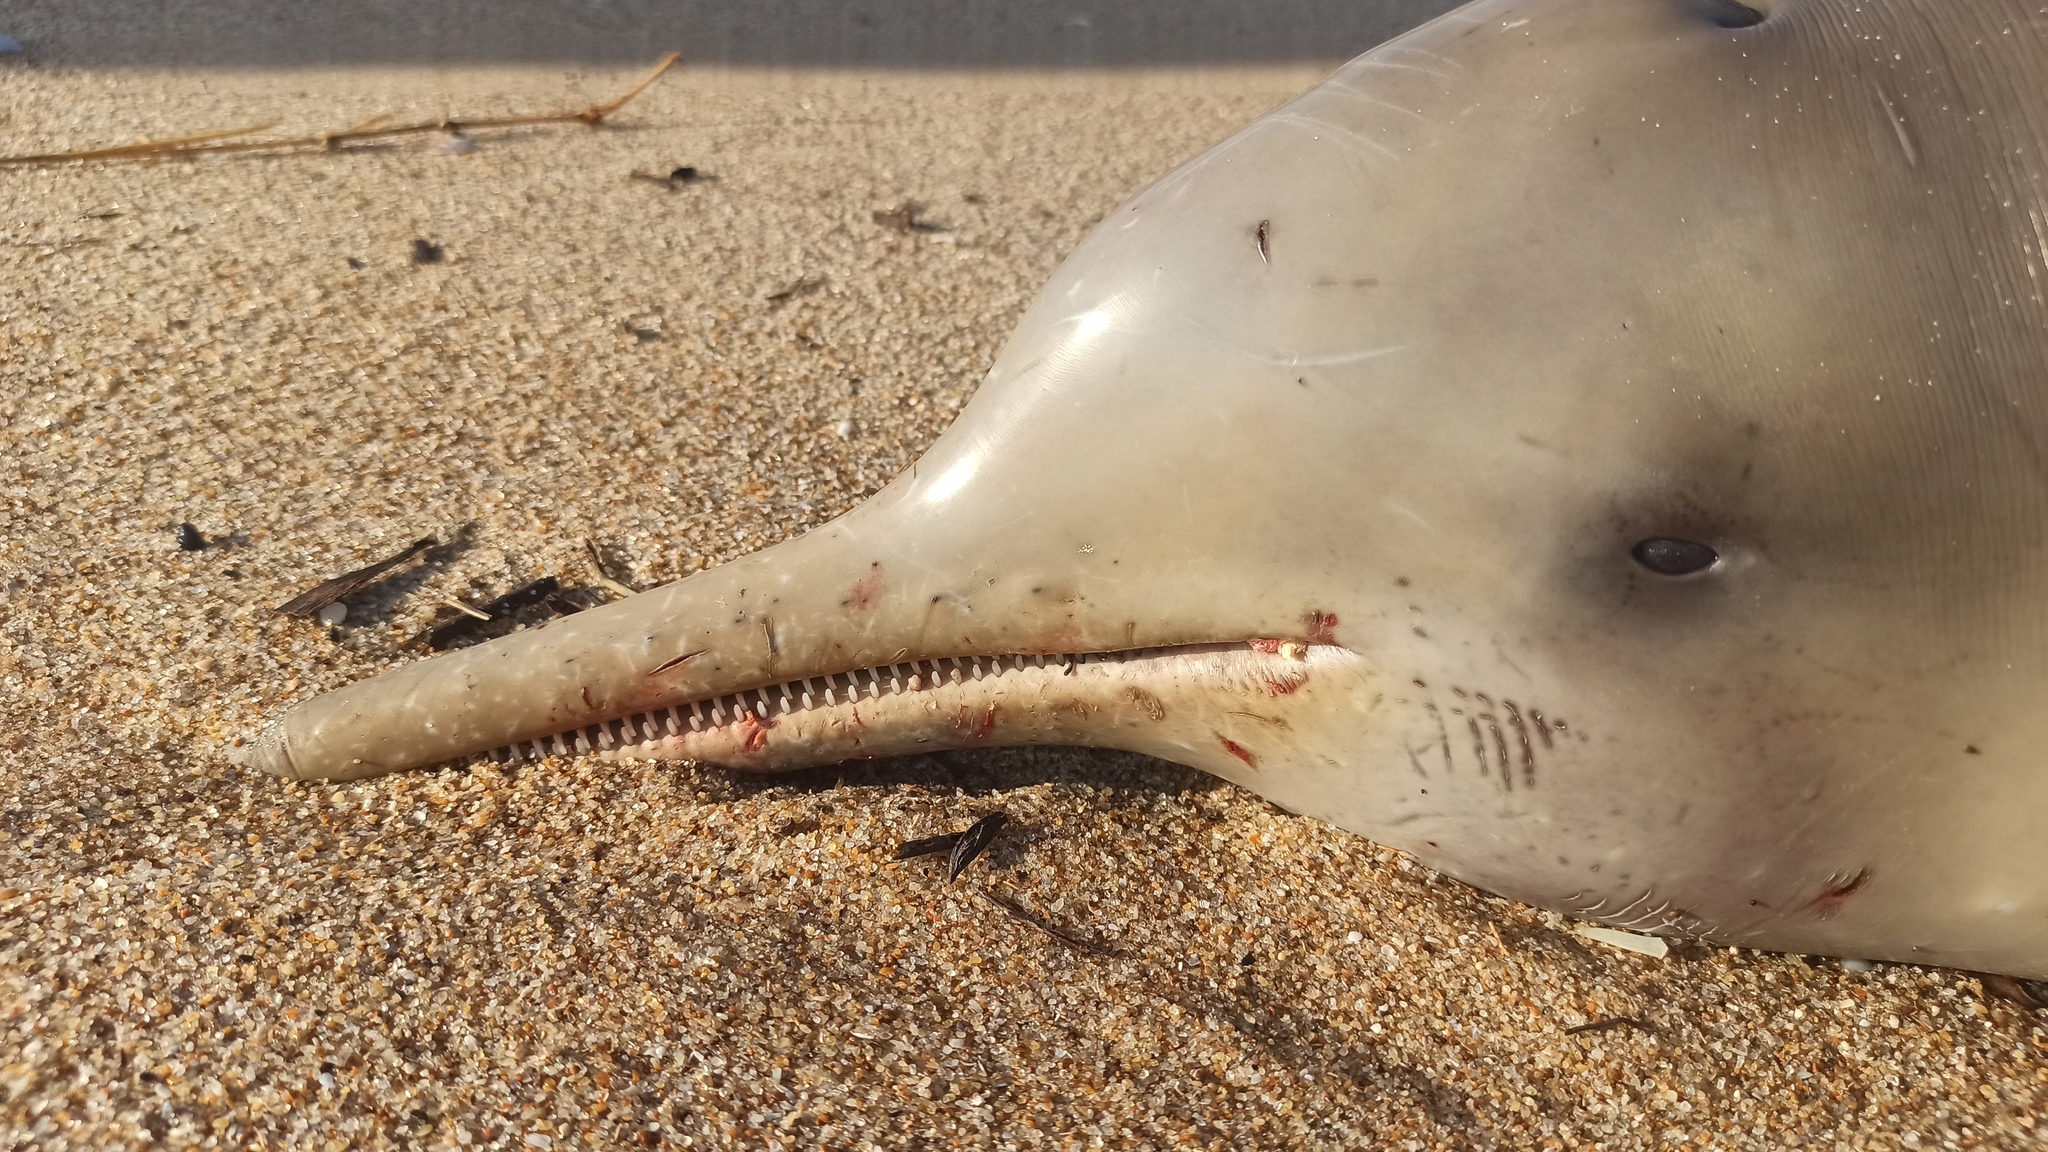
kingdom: Animalia
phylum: Chordata
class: Mammalia
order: Cetacea
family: Pontoporiidae
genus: Pontoporia
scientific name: Pontoporia blainvillei
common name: Franciscana
